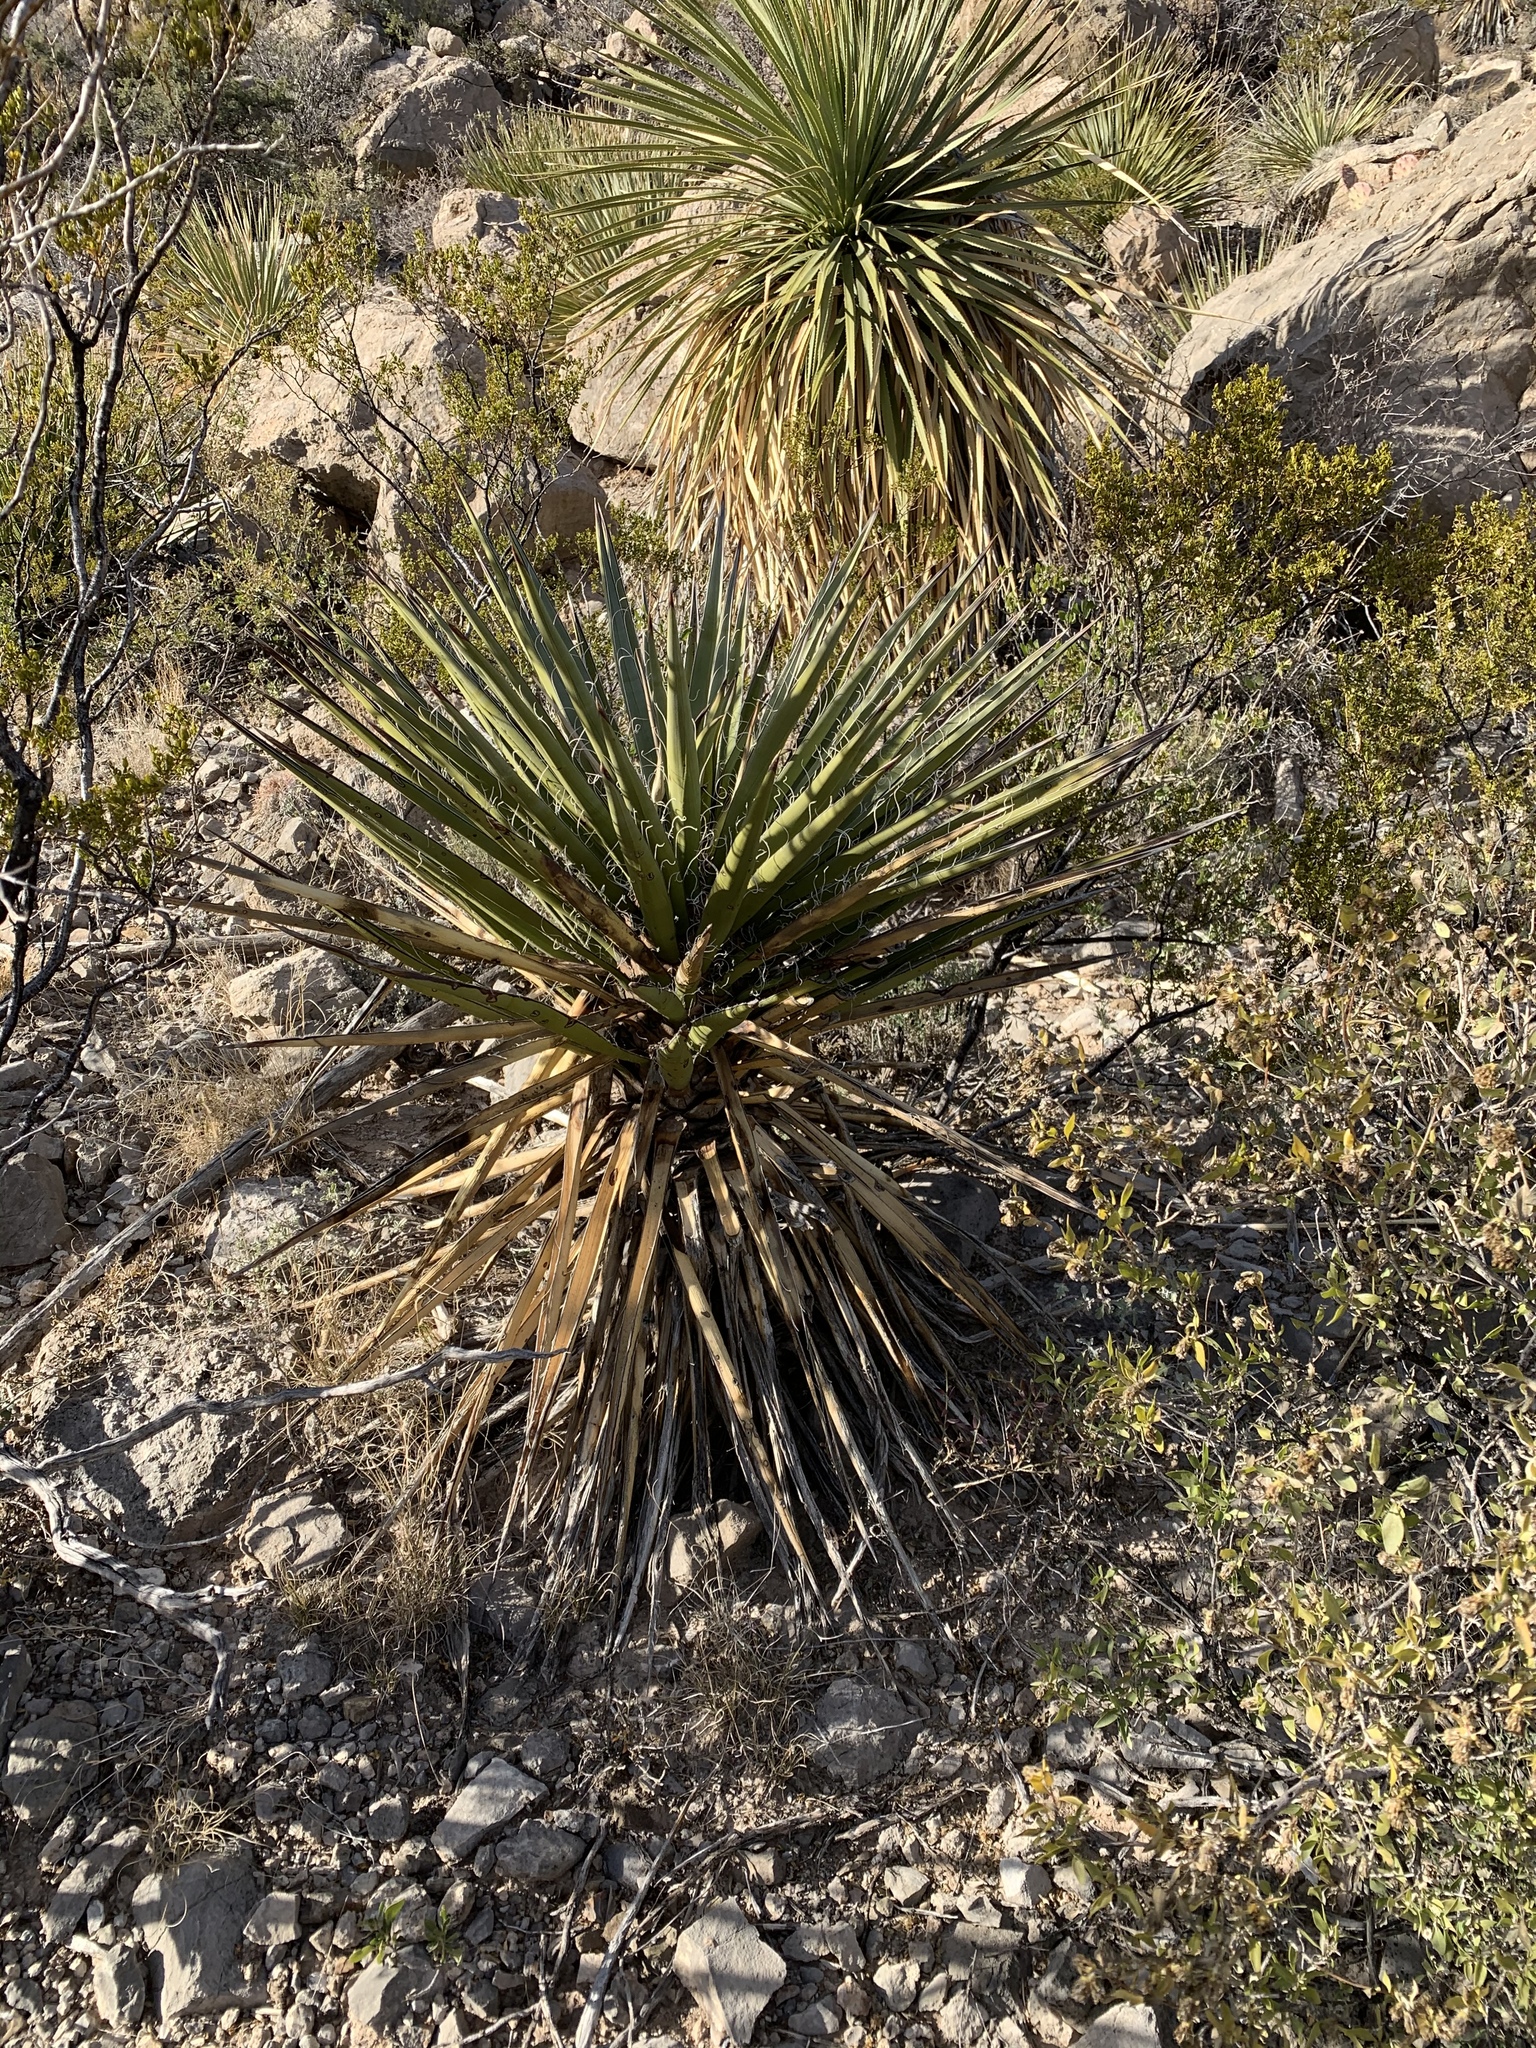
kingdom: Plantae
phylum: Tracheophyta
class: Liliopsida
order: Asparagales
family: Asparagaceae
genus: Yucca
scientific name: Yucca treculiana
